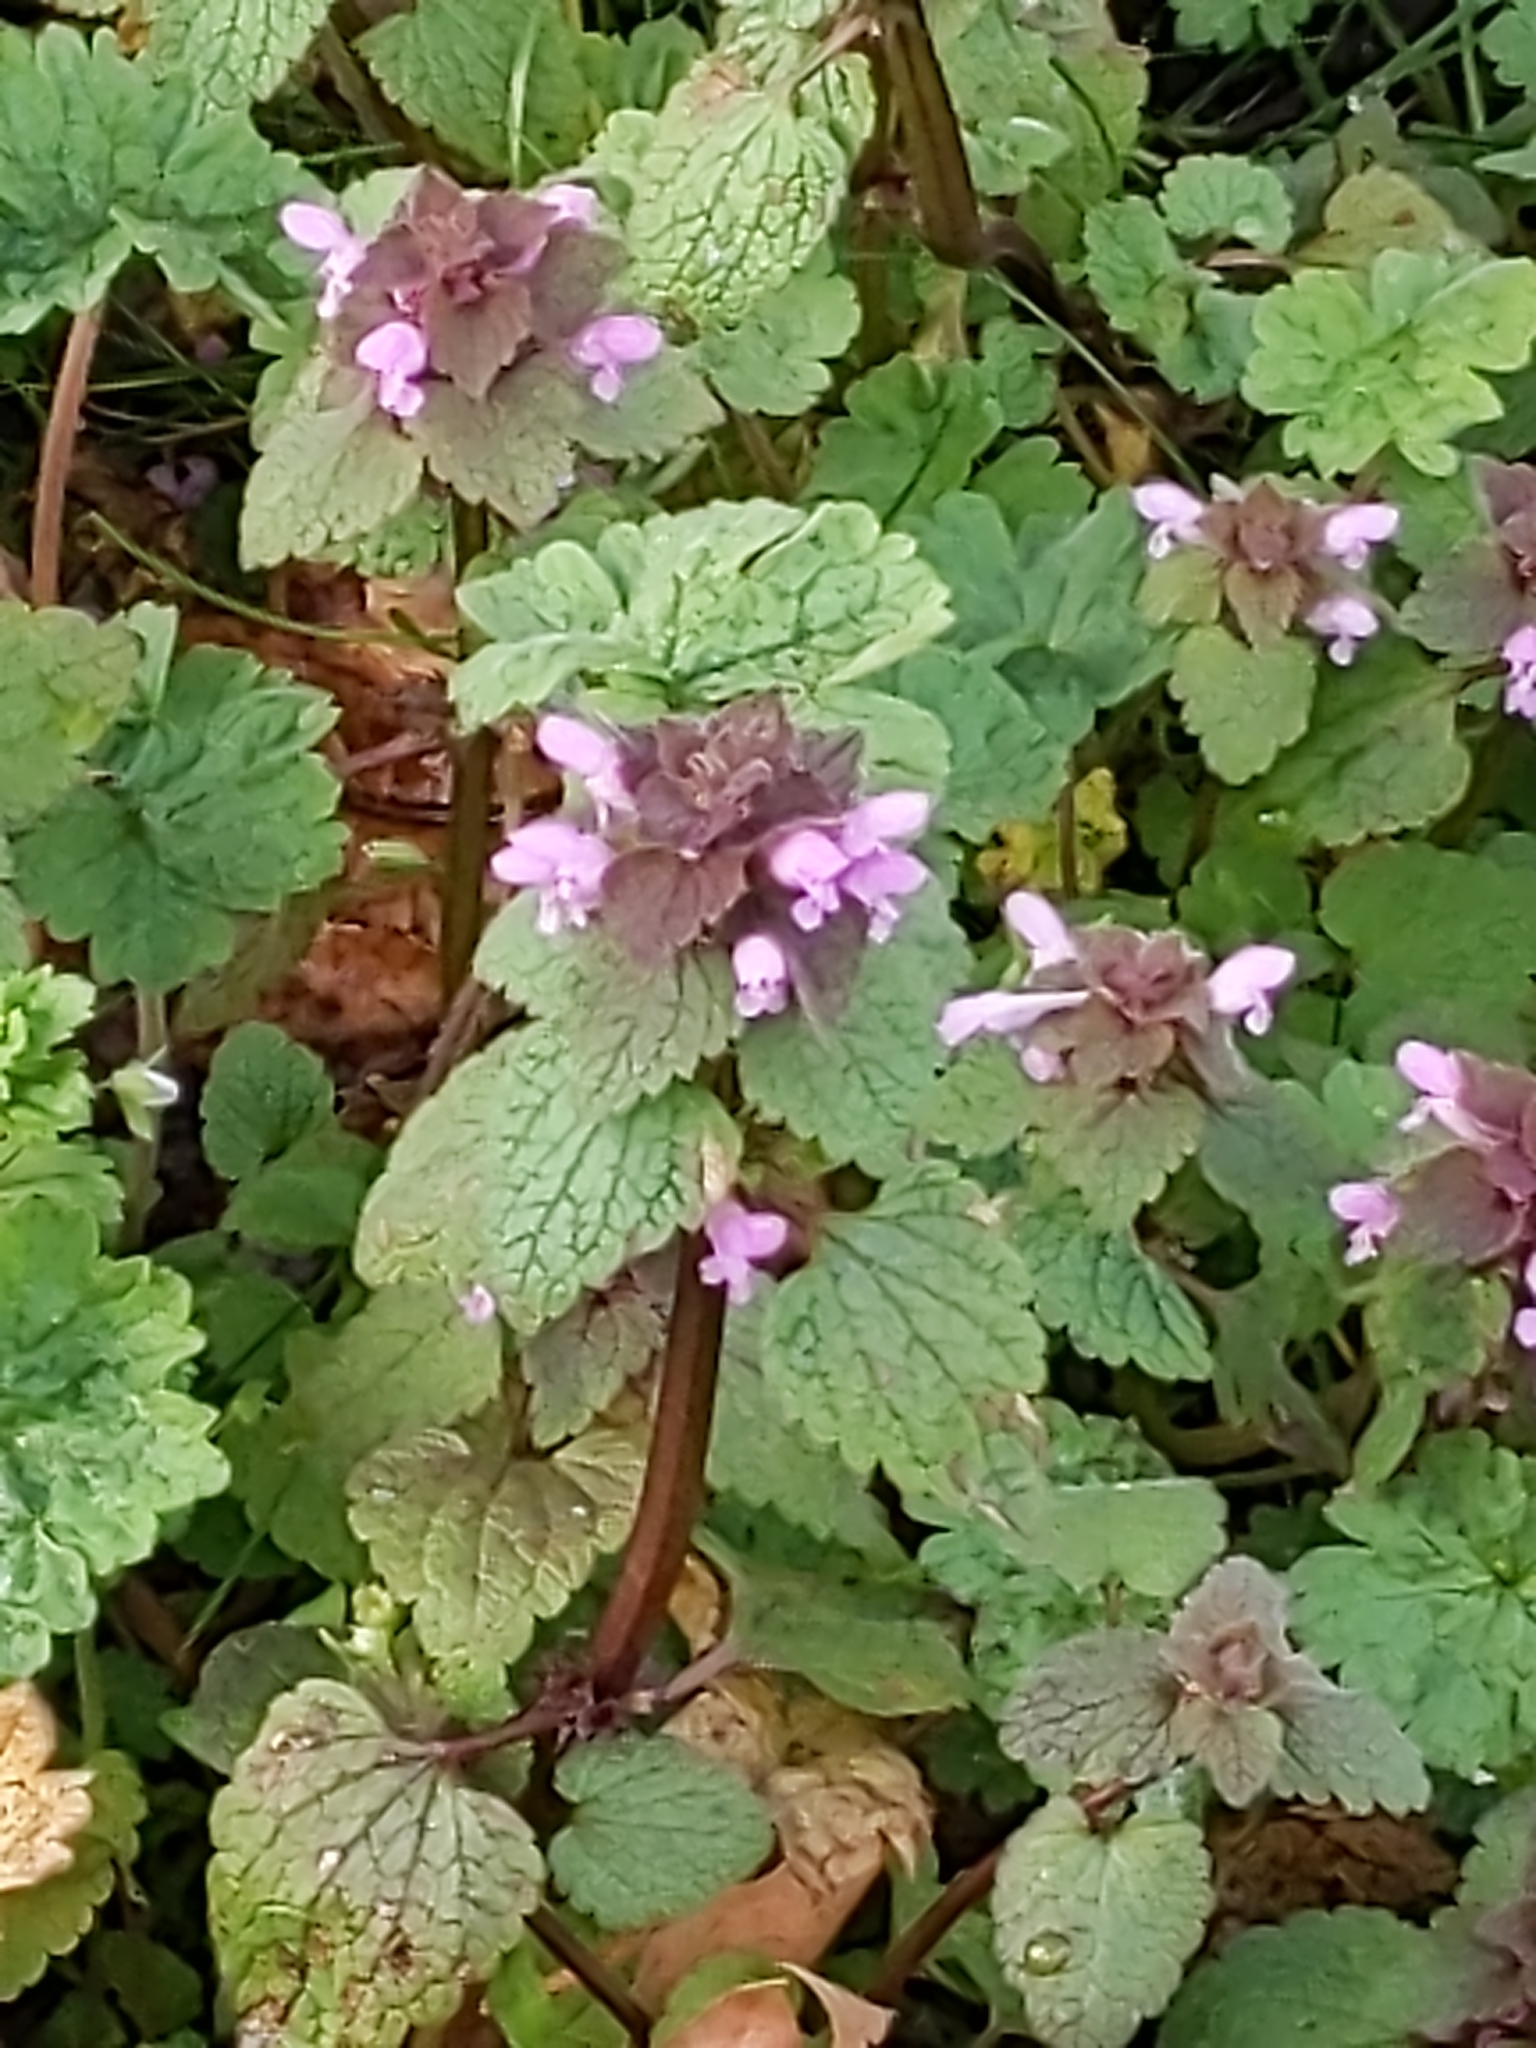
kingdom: Plantae
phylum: Tracheophyta
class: Magnoliopsida
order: Lamiales
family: Lamiaceae
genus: Lamium
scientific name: Lamium purpureum
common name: Red dead-nettle
